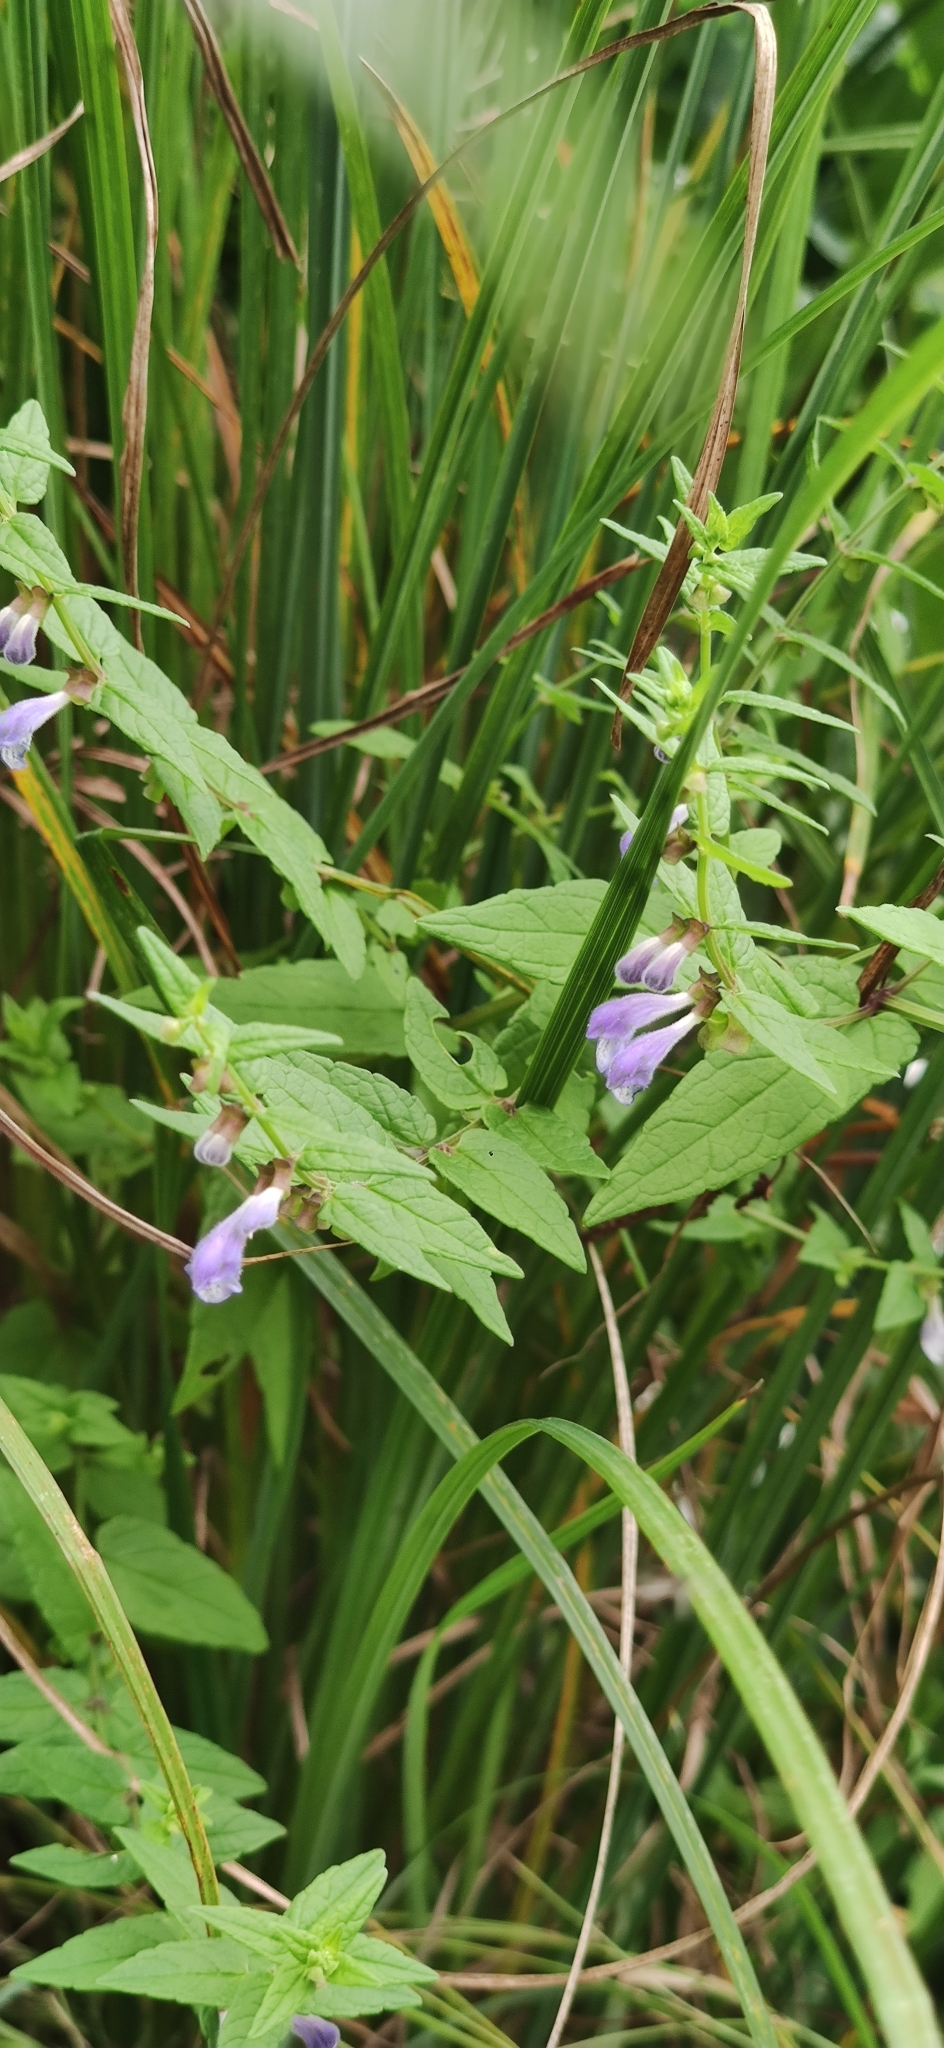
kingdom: Plantae
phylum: Tracheophyta
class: Magnoliopsida
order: Lamiales
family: Lamiaceae
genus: Scutellaria
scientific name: Scutellaria galericulata
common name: Skullcap
